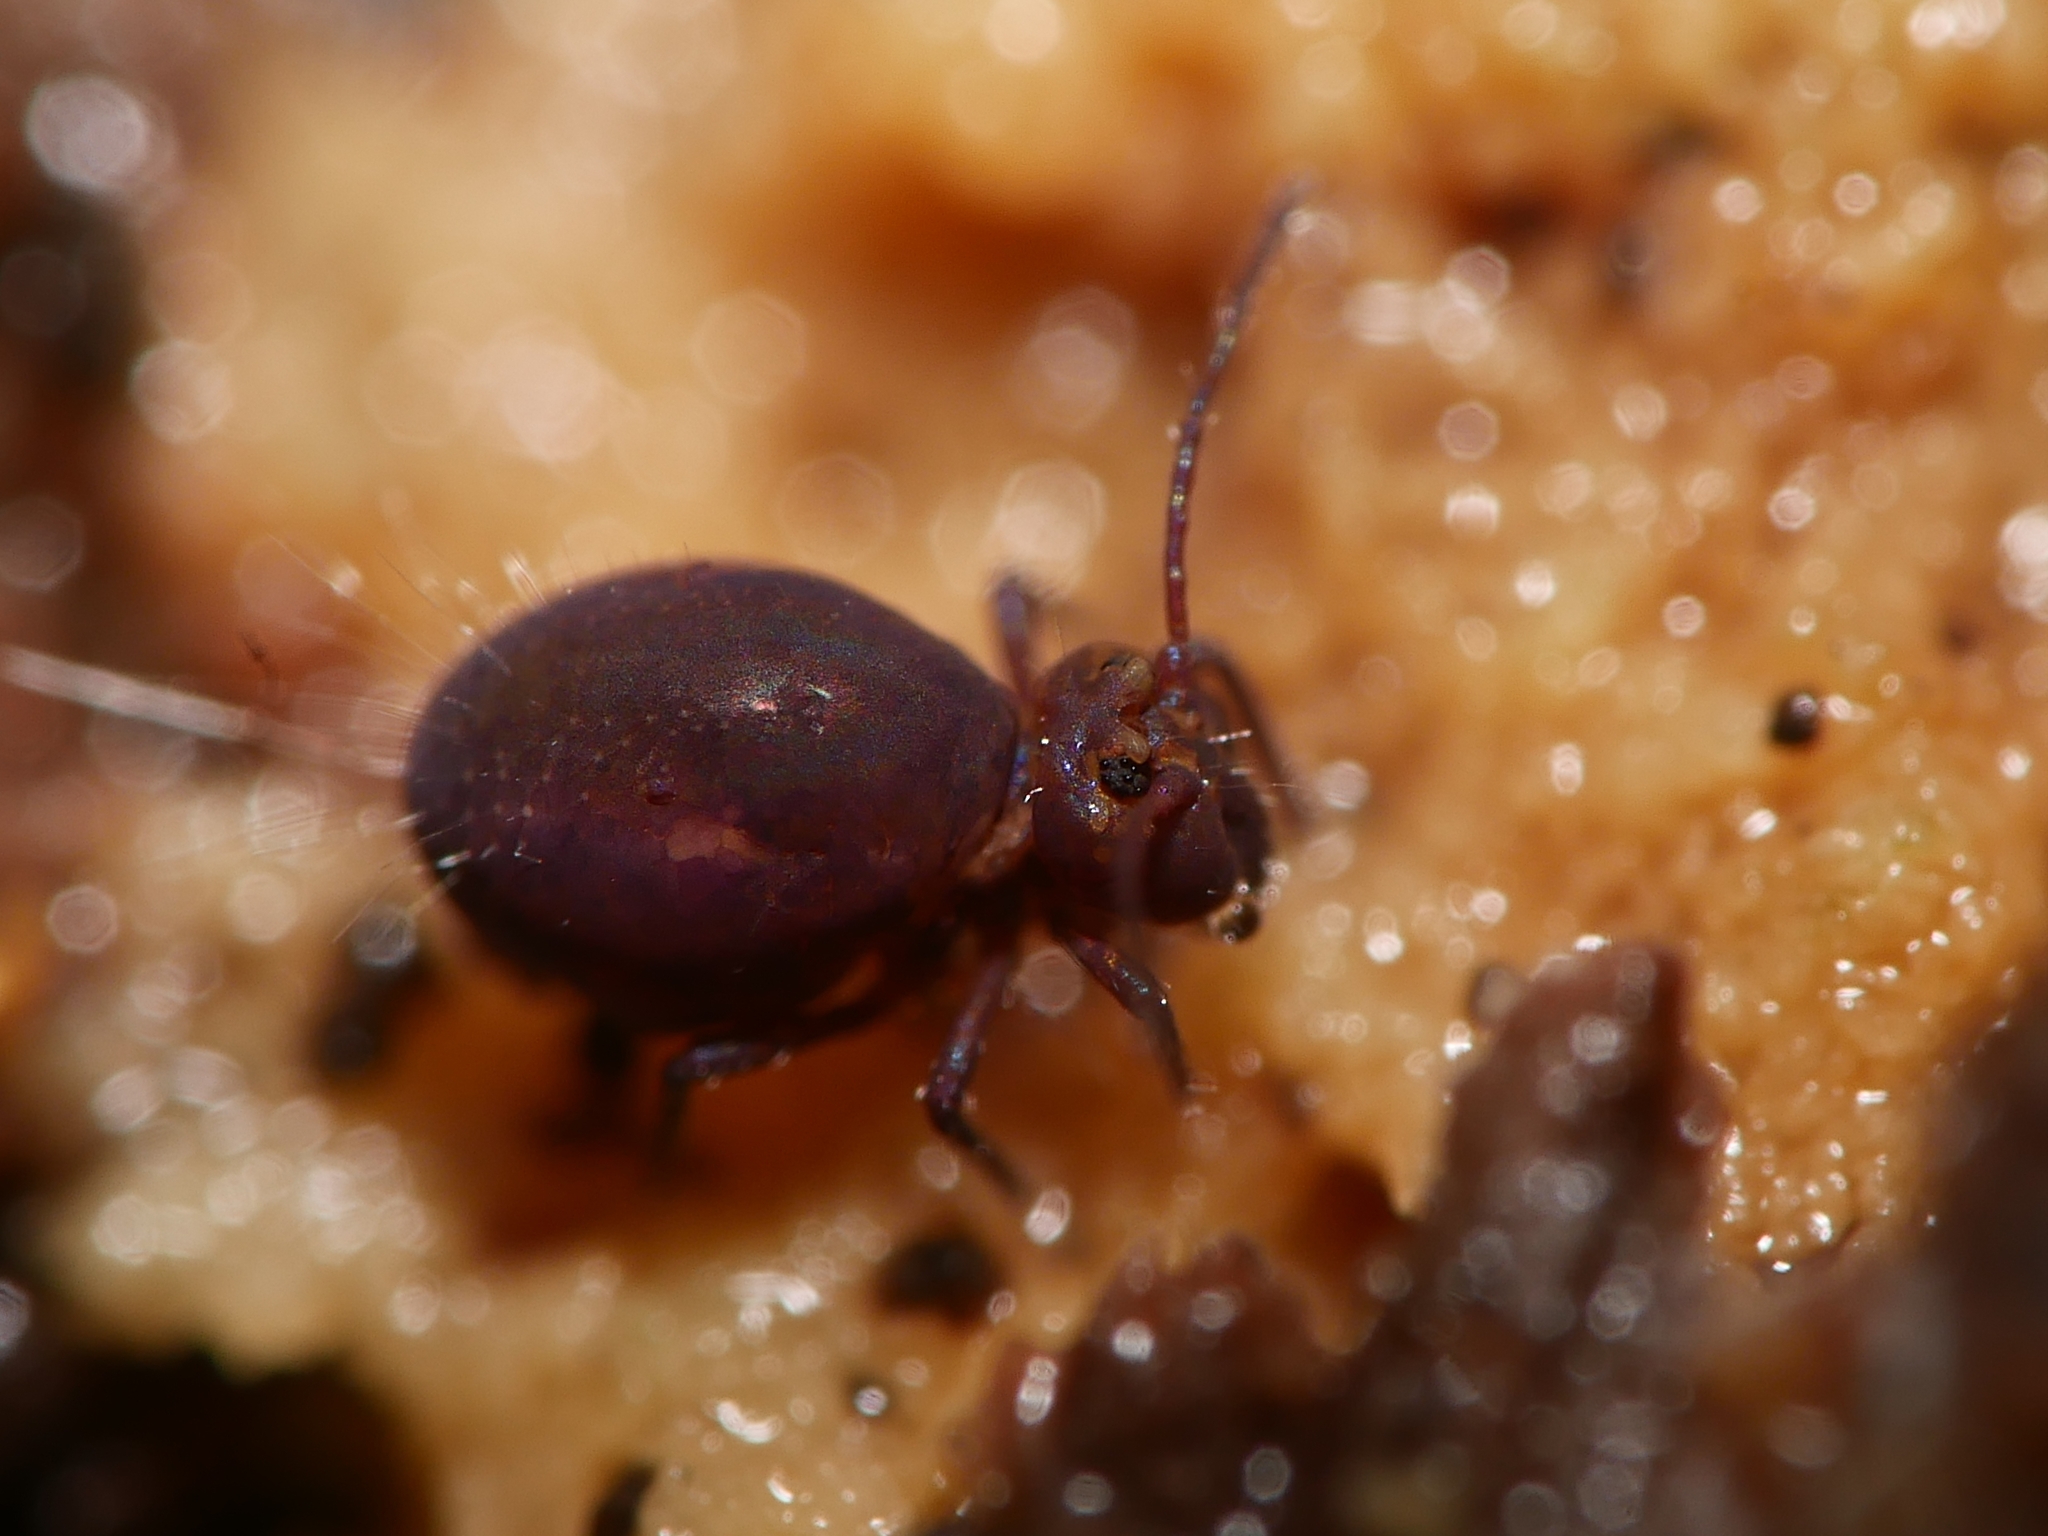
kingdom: Animalia
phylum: Arthropoda
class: Collembola
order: Symphypleona
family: Dicyrtomidae
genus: Dicyrtoma
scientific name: Dicyrtoma fusca
